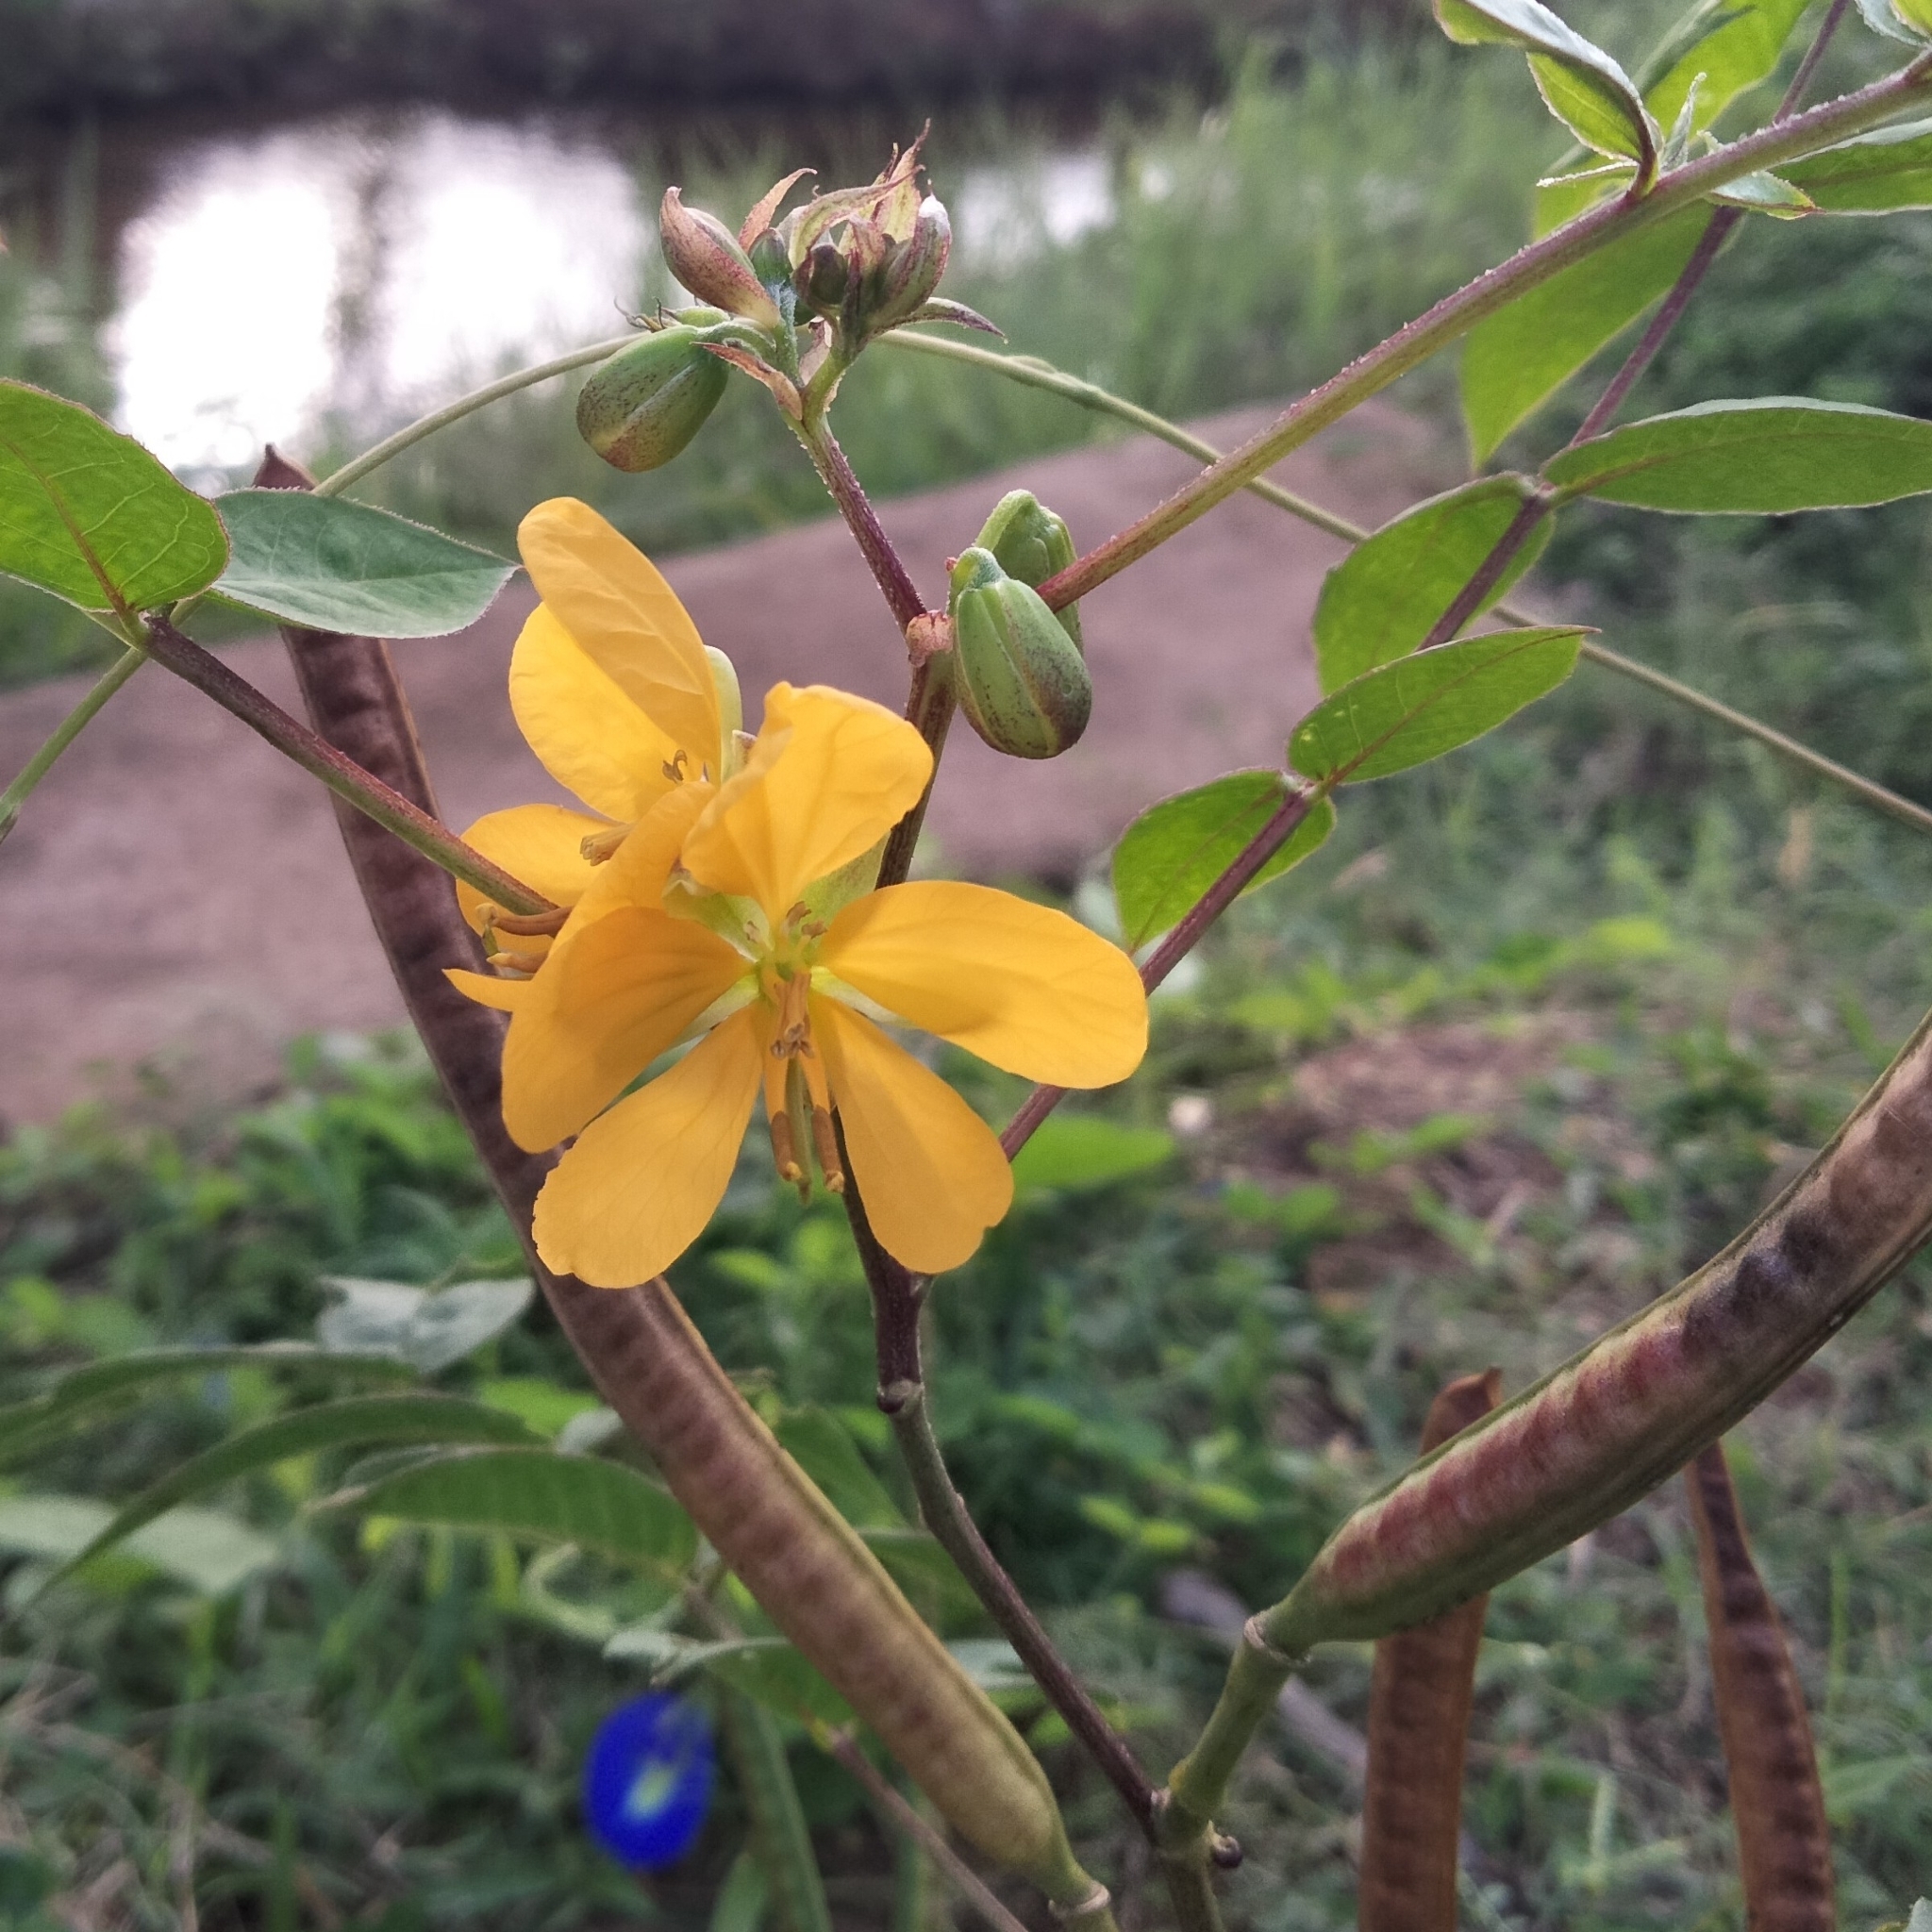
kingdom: Plantae
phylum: Tracheophyta
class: Magnoliopsida
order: Fabales
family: Fabaceae
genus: Senna
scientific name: Senna occidentalis
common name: Septicweed
